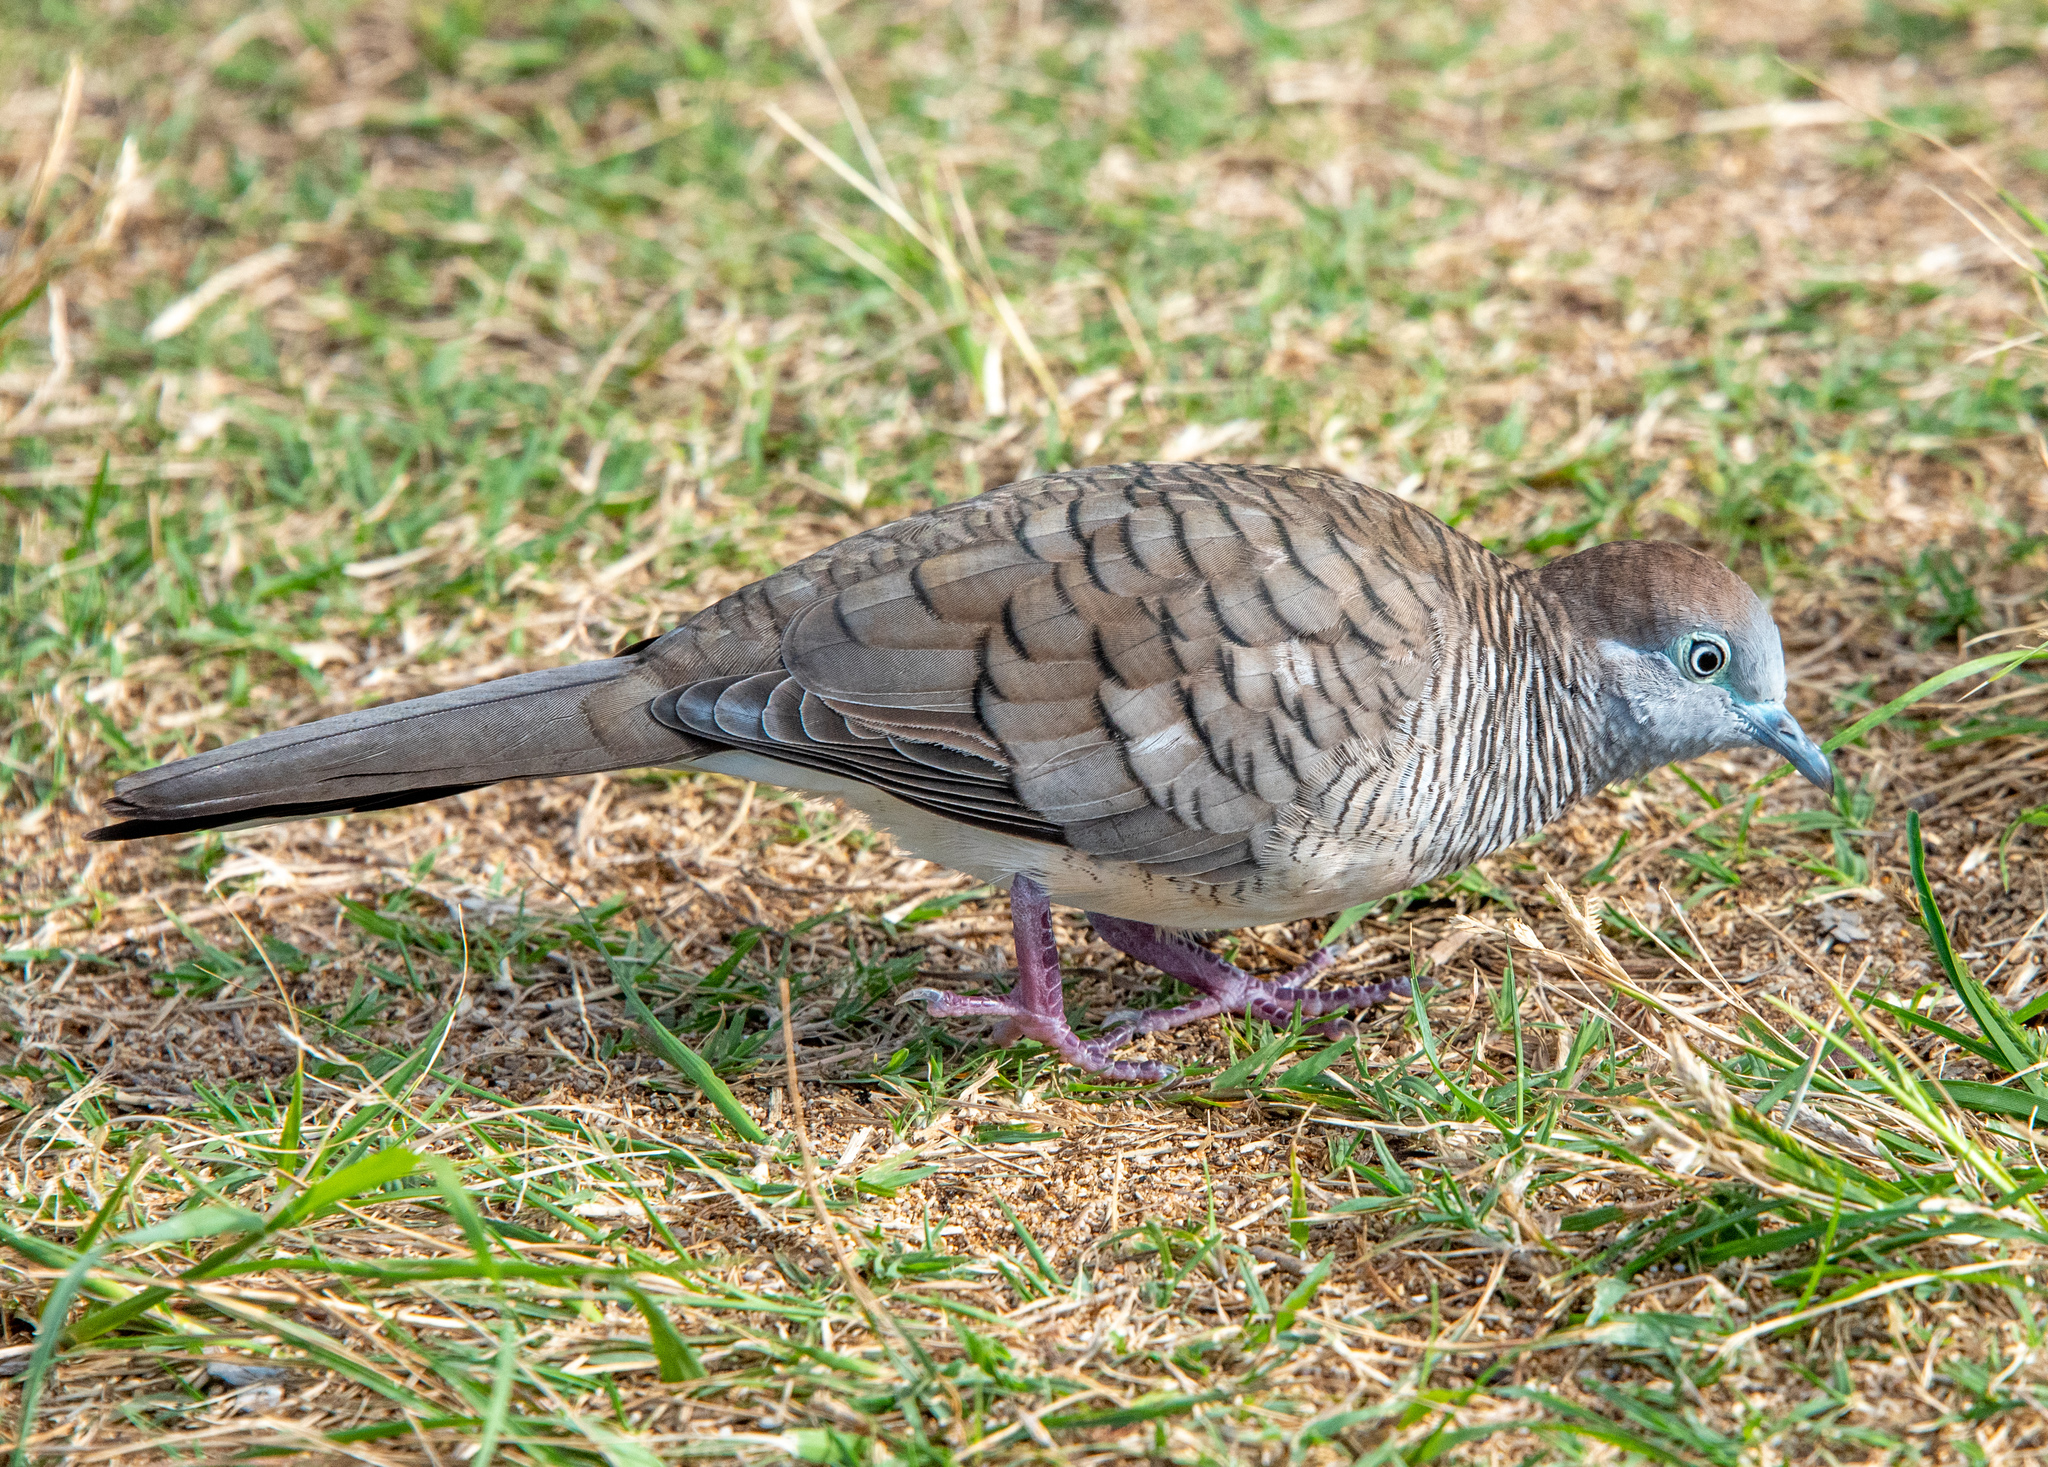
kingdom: Animalia
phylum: Chordata
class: Aves
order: Columbiformes
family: Columbidae
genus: Geopelia
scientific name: Geopelia striata
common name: Zebra dove
